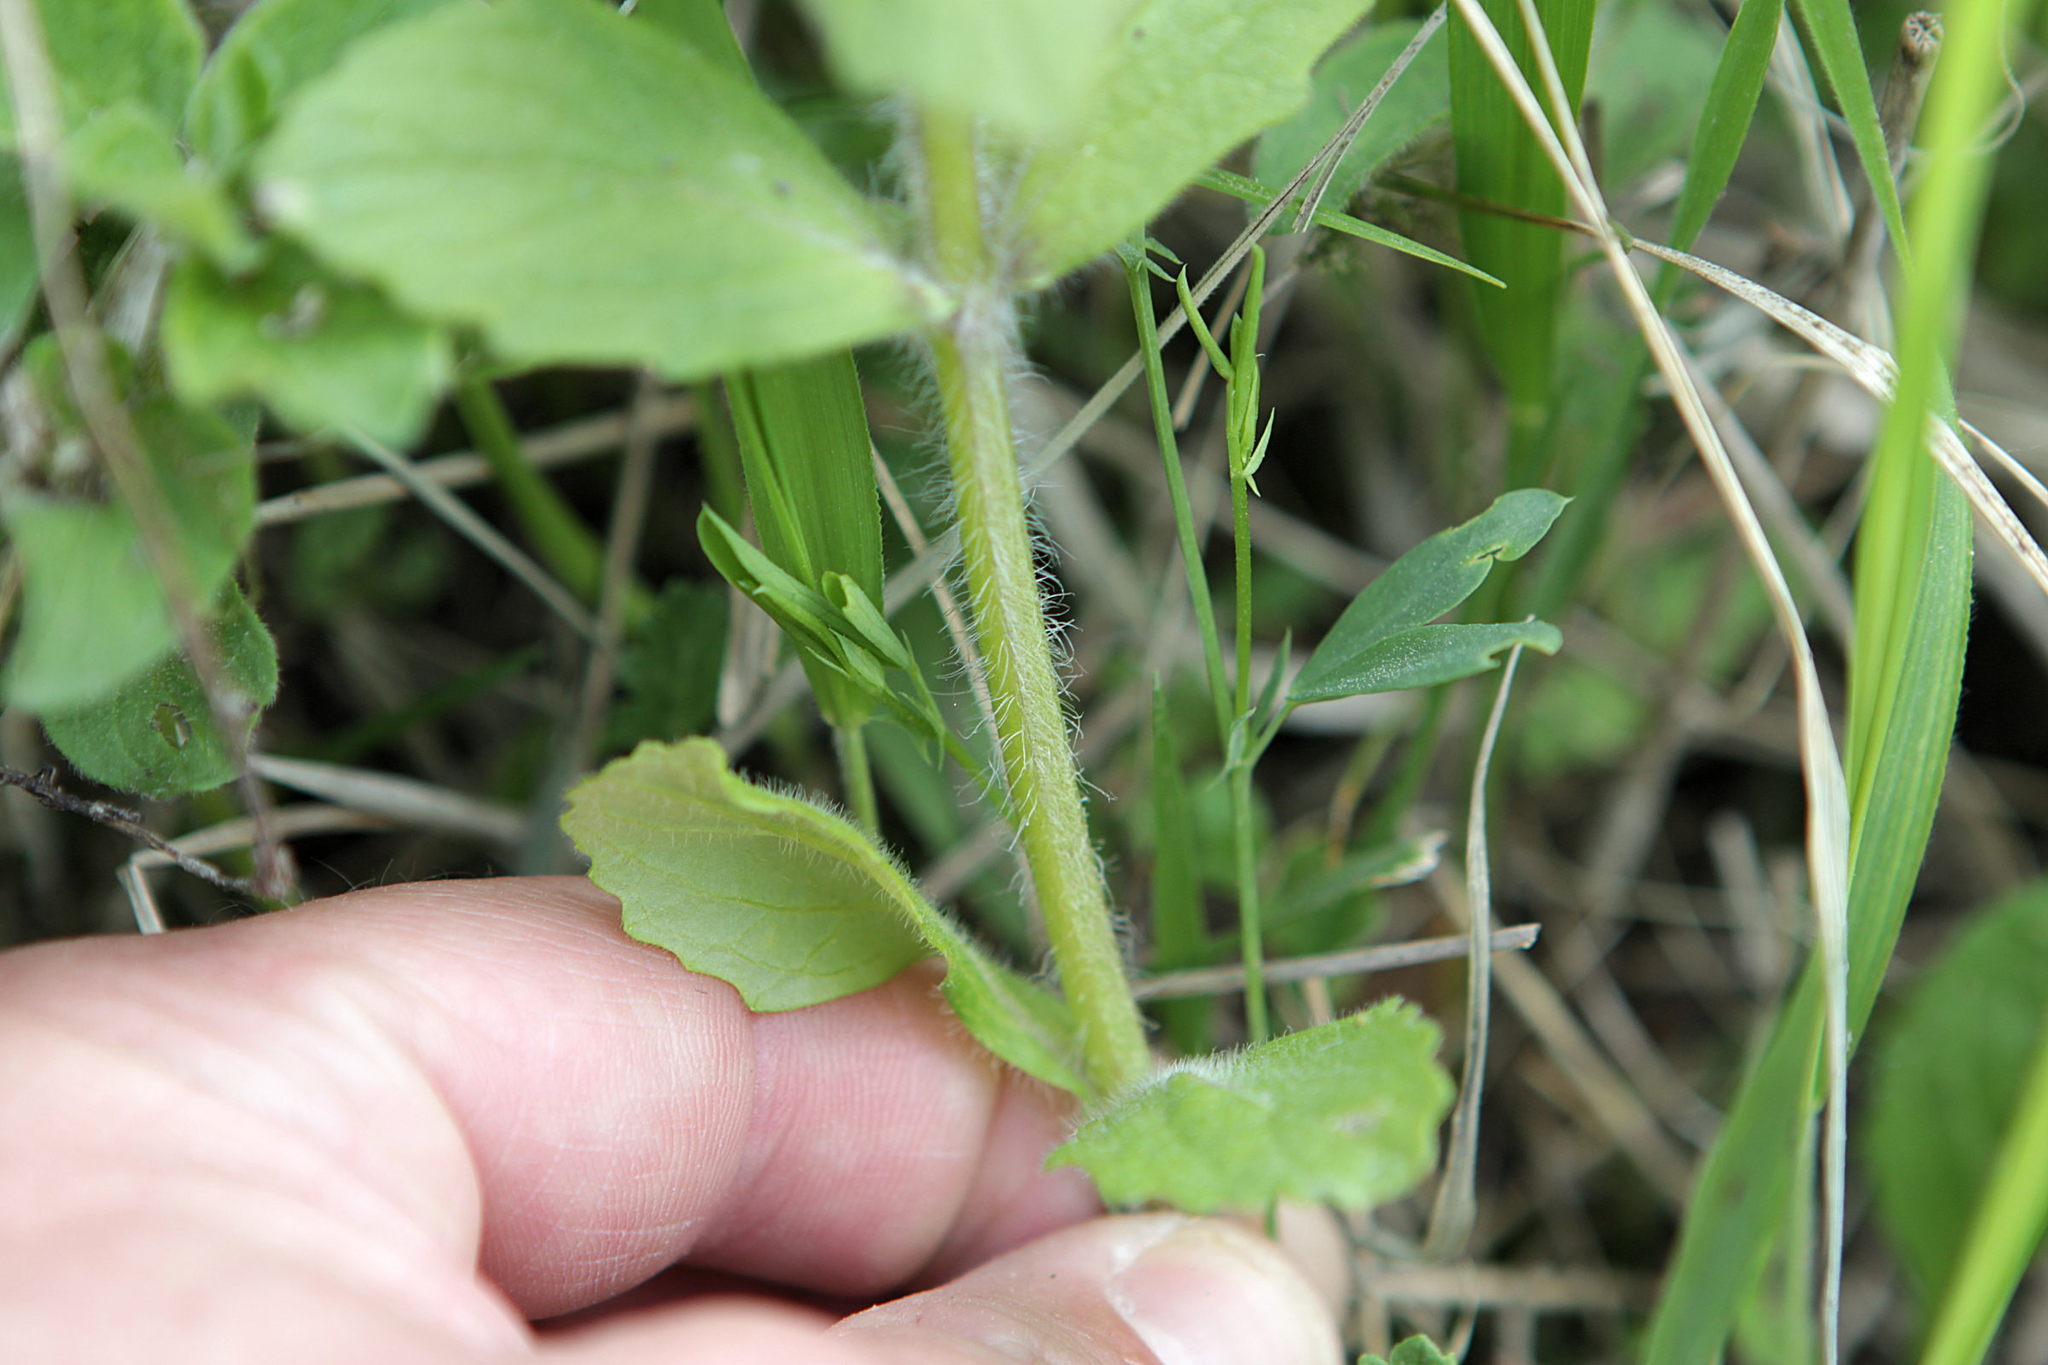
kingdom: Plantae
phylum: Tracheophyta
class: Magnoliopsida
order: Lamiales
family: Lamiaceae
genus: Ajuga
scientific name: Ajuga genevensis
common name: Blue bugle
